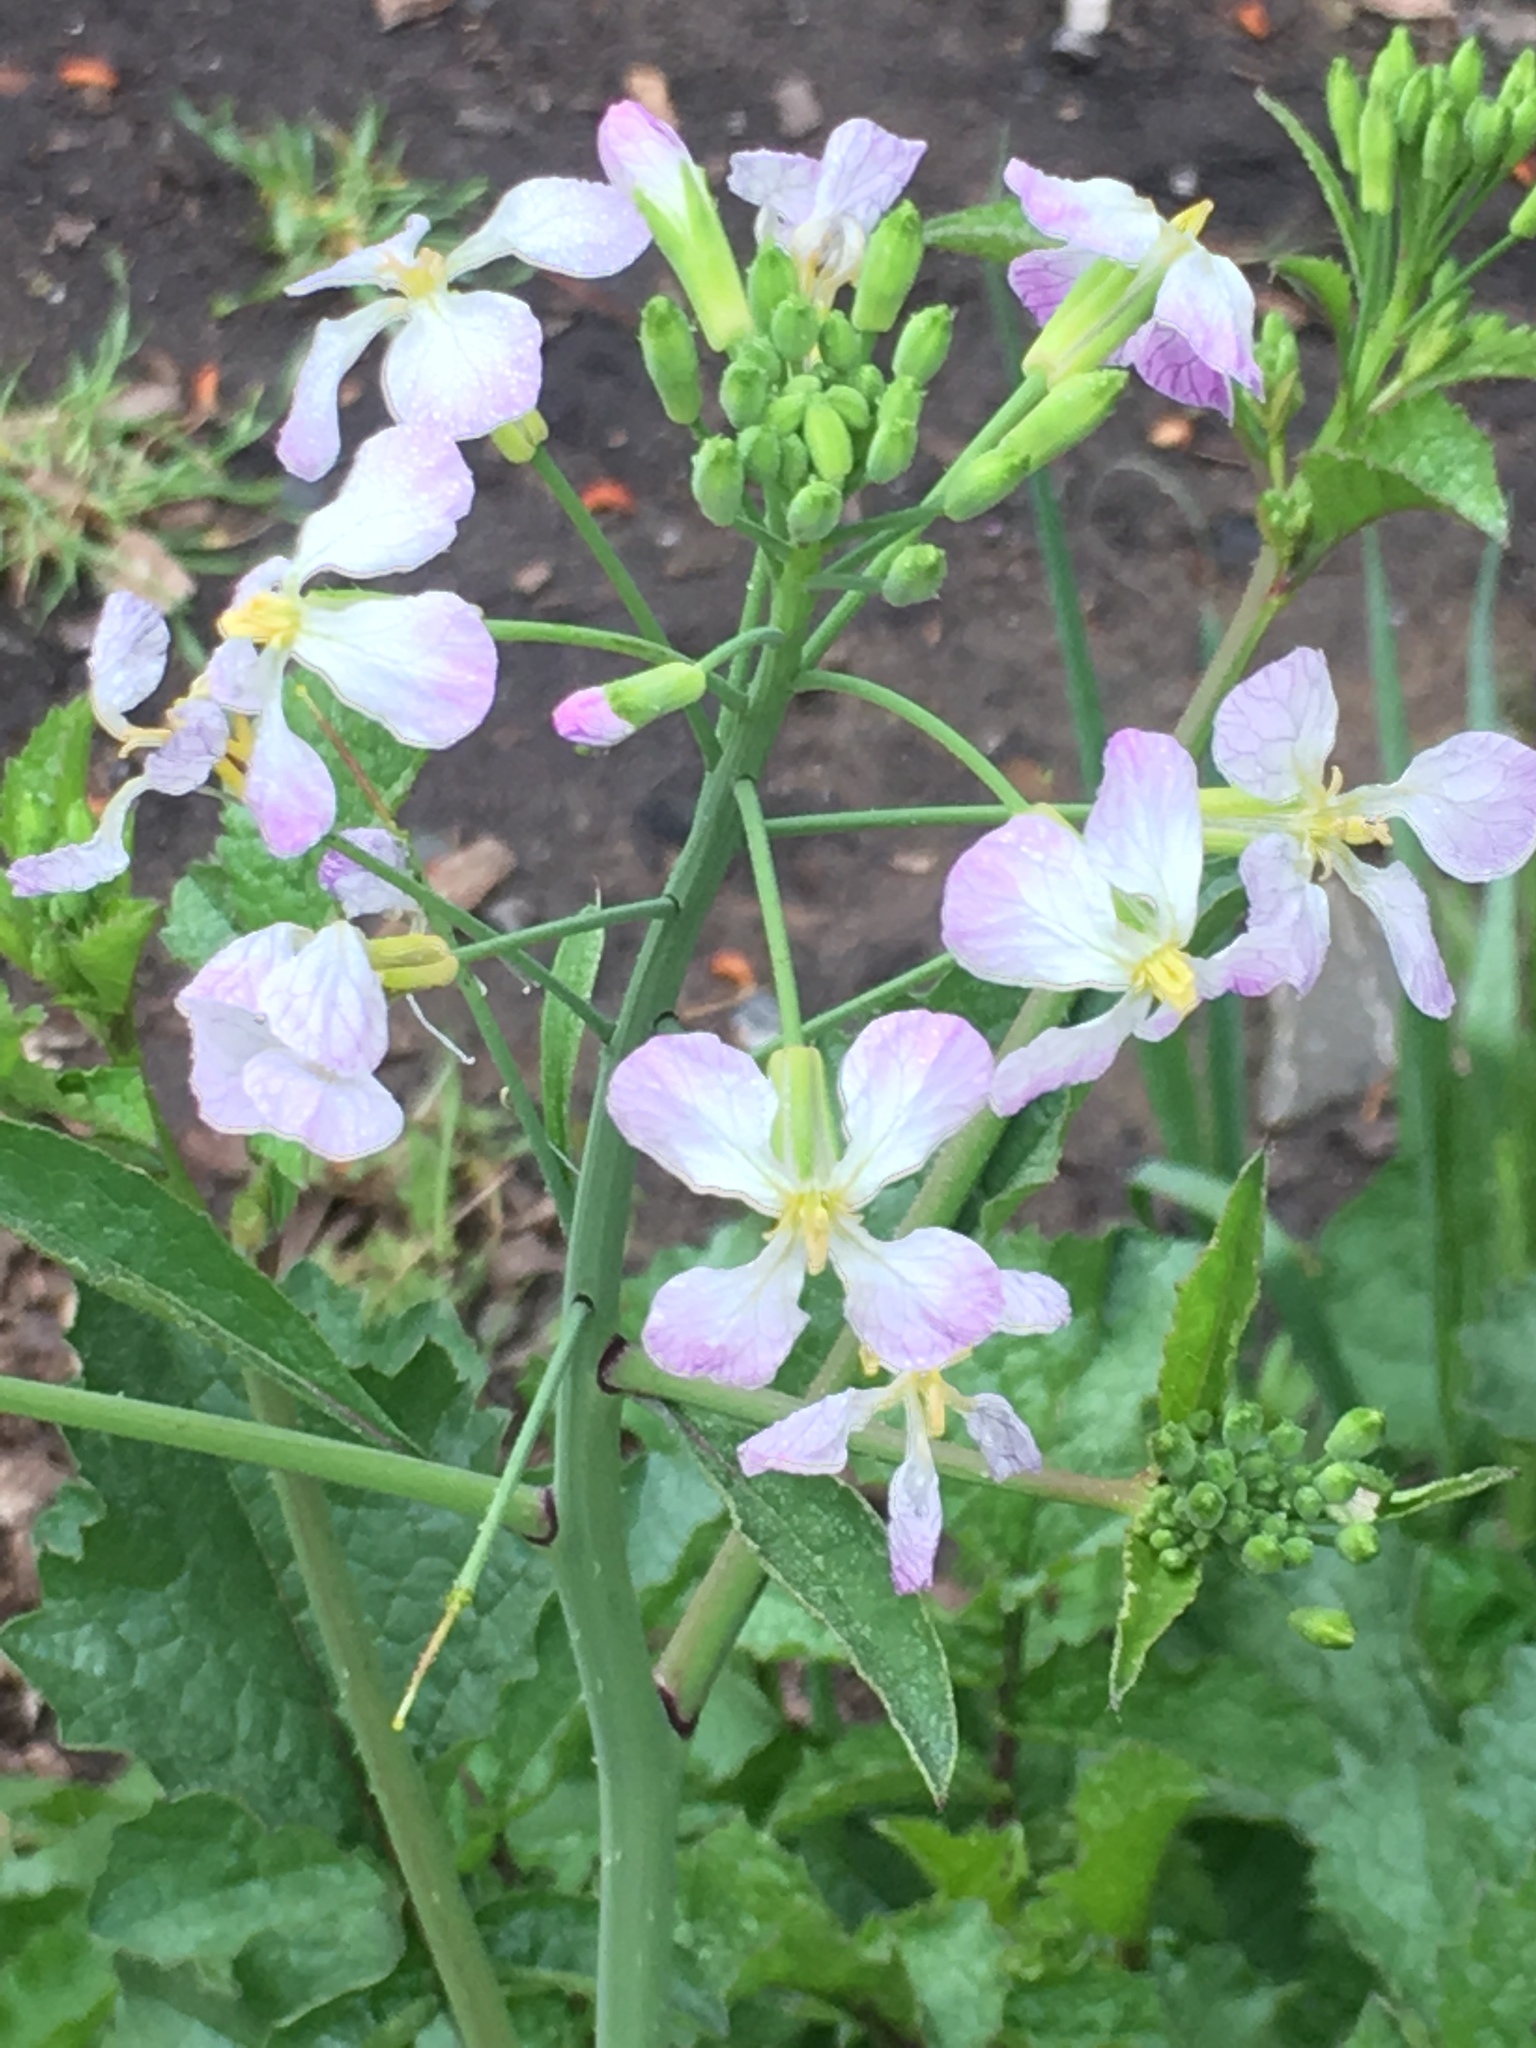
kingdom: Plantae
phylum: Tracheophyta
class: Magnoliopsida
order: Brassicales
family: Brassicaceae
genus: Raphanus
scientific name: Raphanus sativus
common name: Cultivated radish
